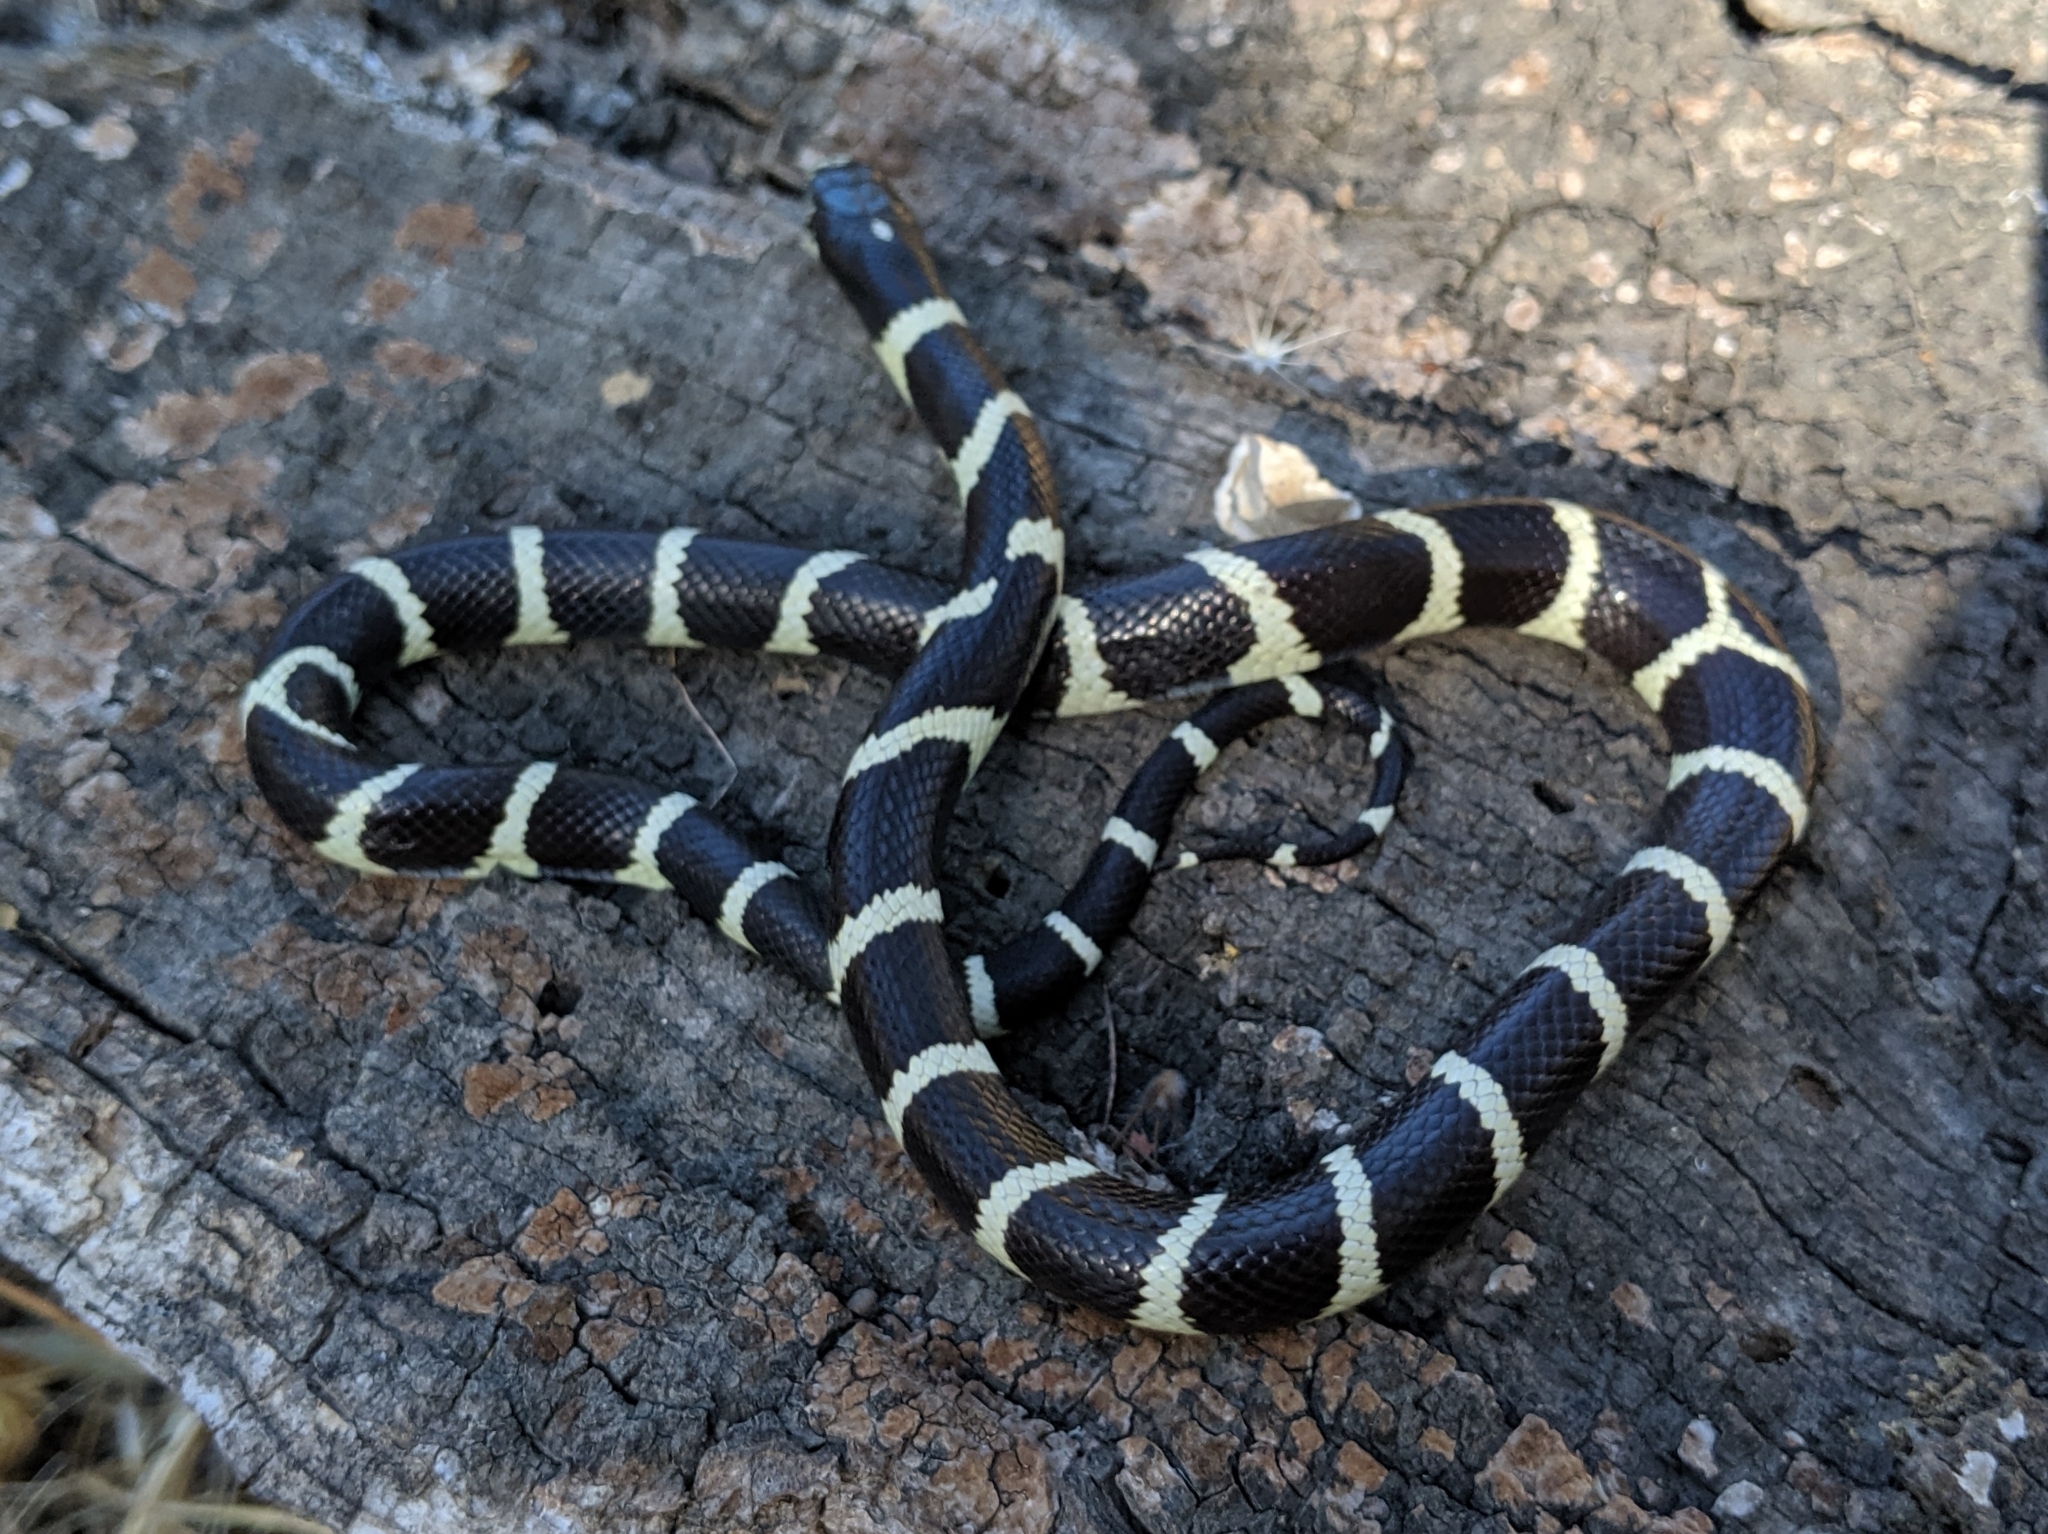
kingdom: Animalia
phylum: Chordata
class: Squamata
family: Colubridae
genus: Lampropeltis
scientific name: Lampropeltis californiae
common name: California kingsnake
